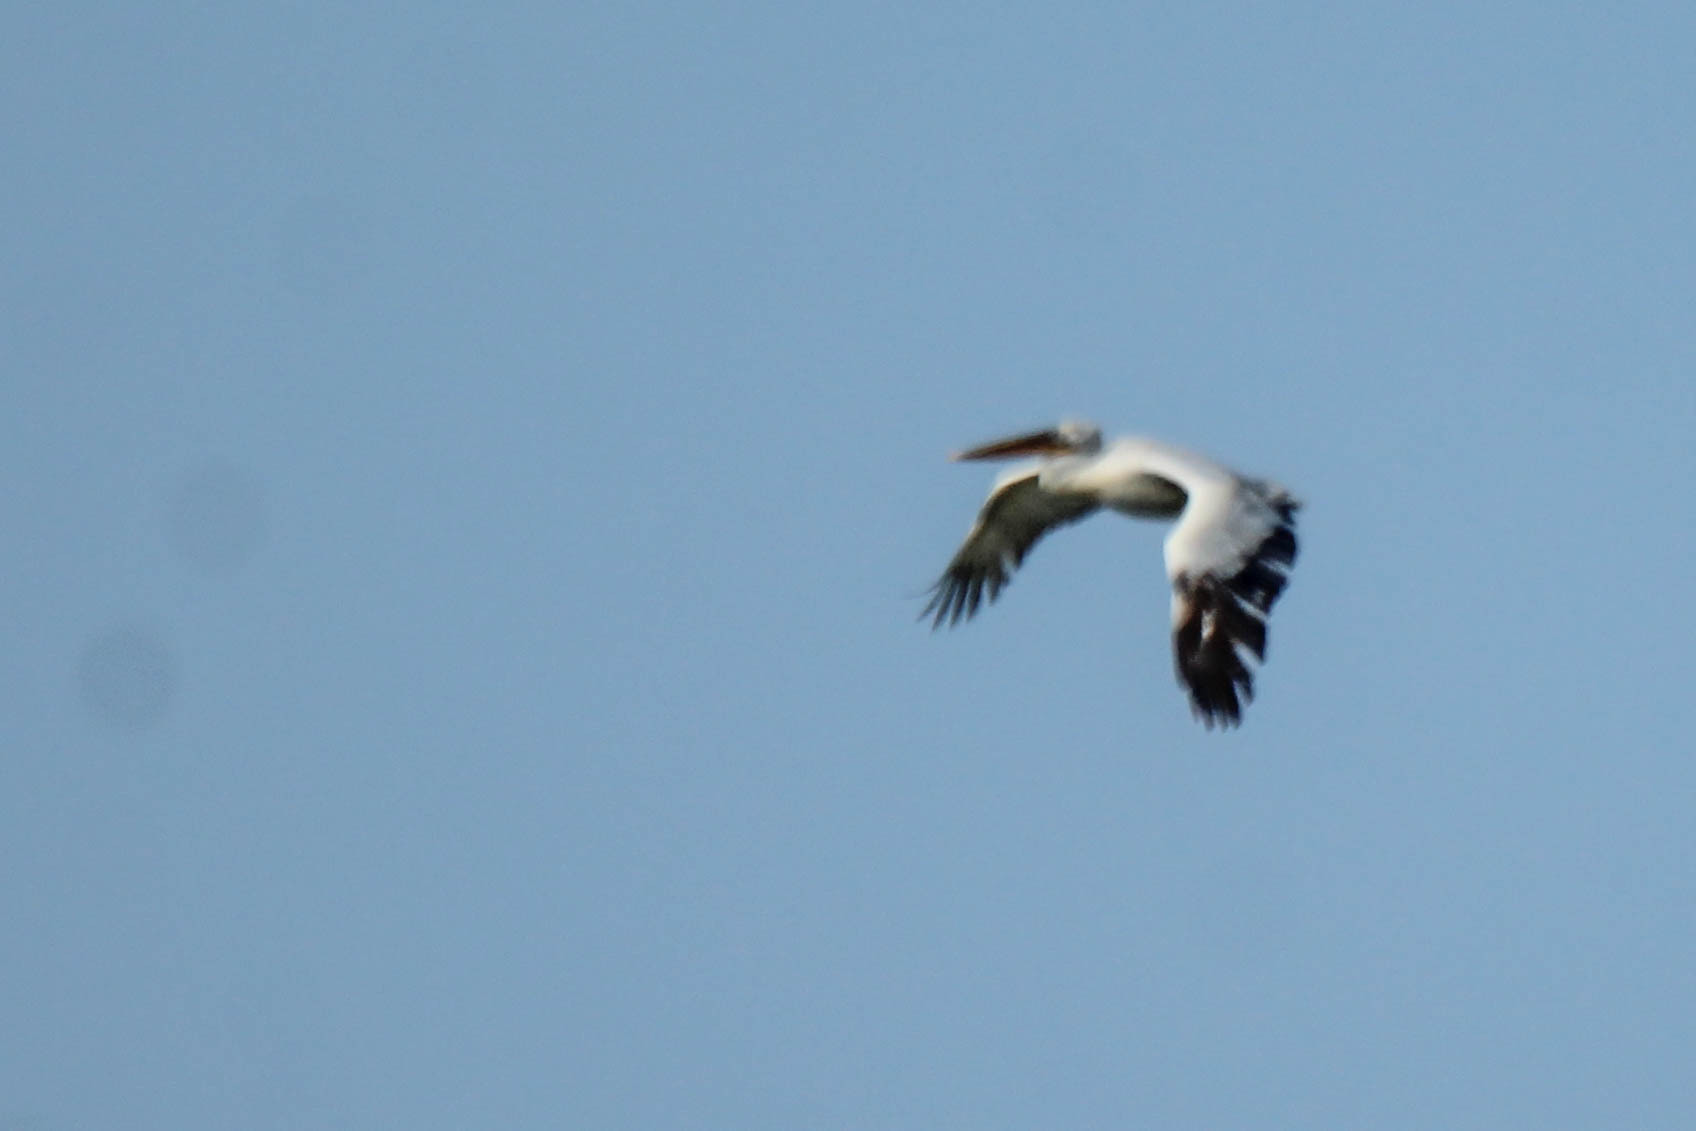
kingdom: Animalia
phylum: Chordata
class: Aves
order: Pelecaniformes
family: Pelecanidae
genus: Pelecanus
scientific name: Pelecanus crispus
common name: Dalmatian pelican
